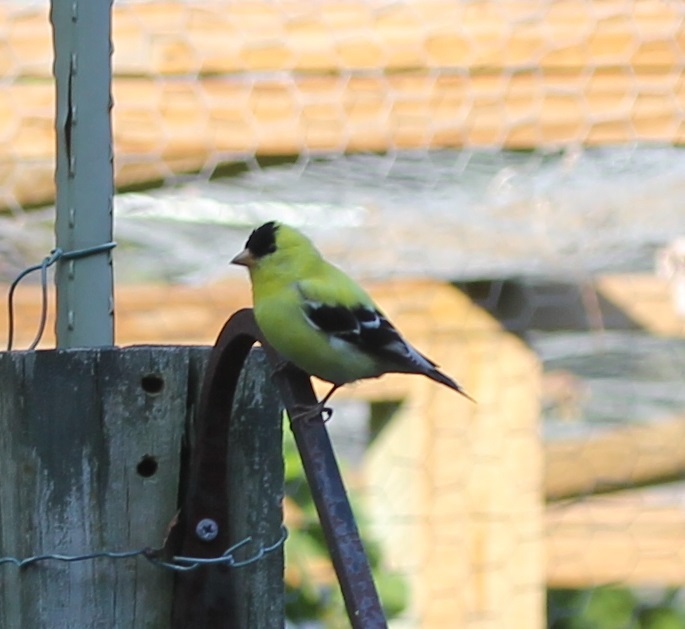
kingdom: Animalia
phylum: Chordata
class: Aves
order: Passeriformes
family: Fringillidae
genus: Spinus
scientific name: Spinus tristis
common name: American goldfinch
